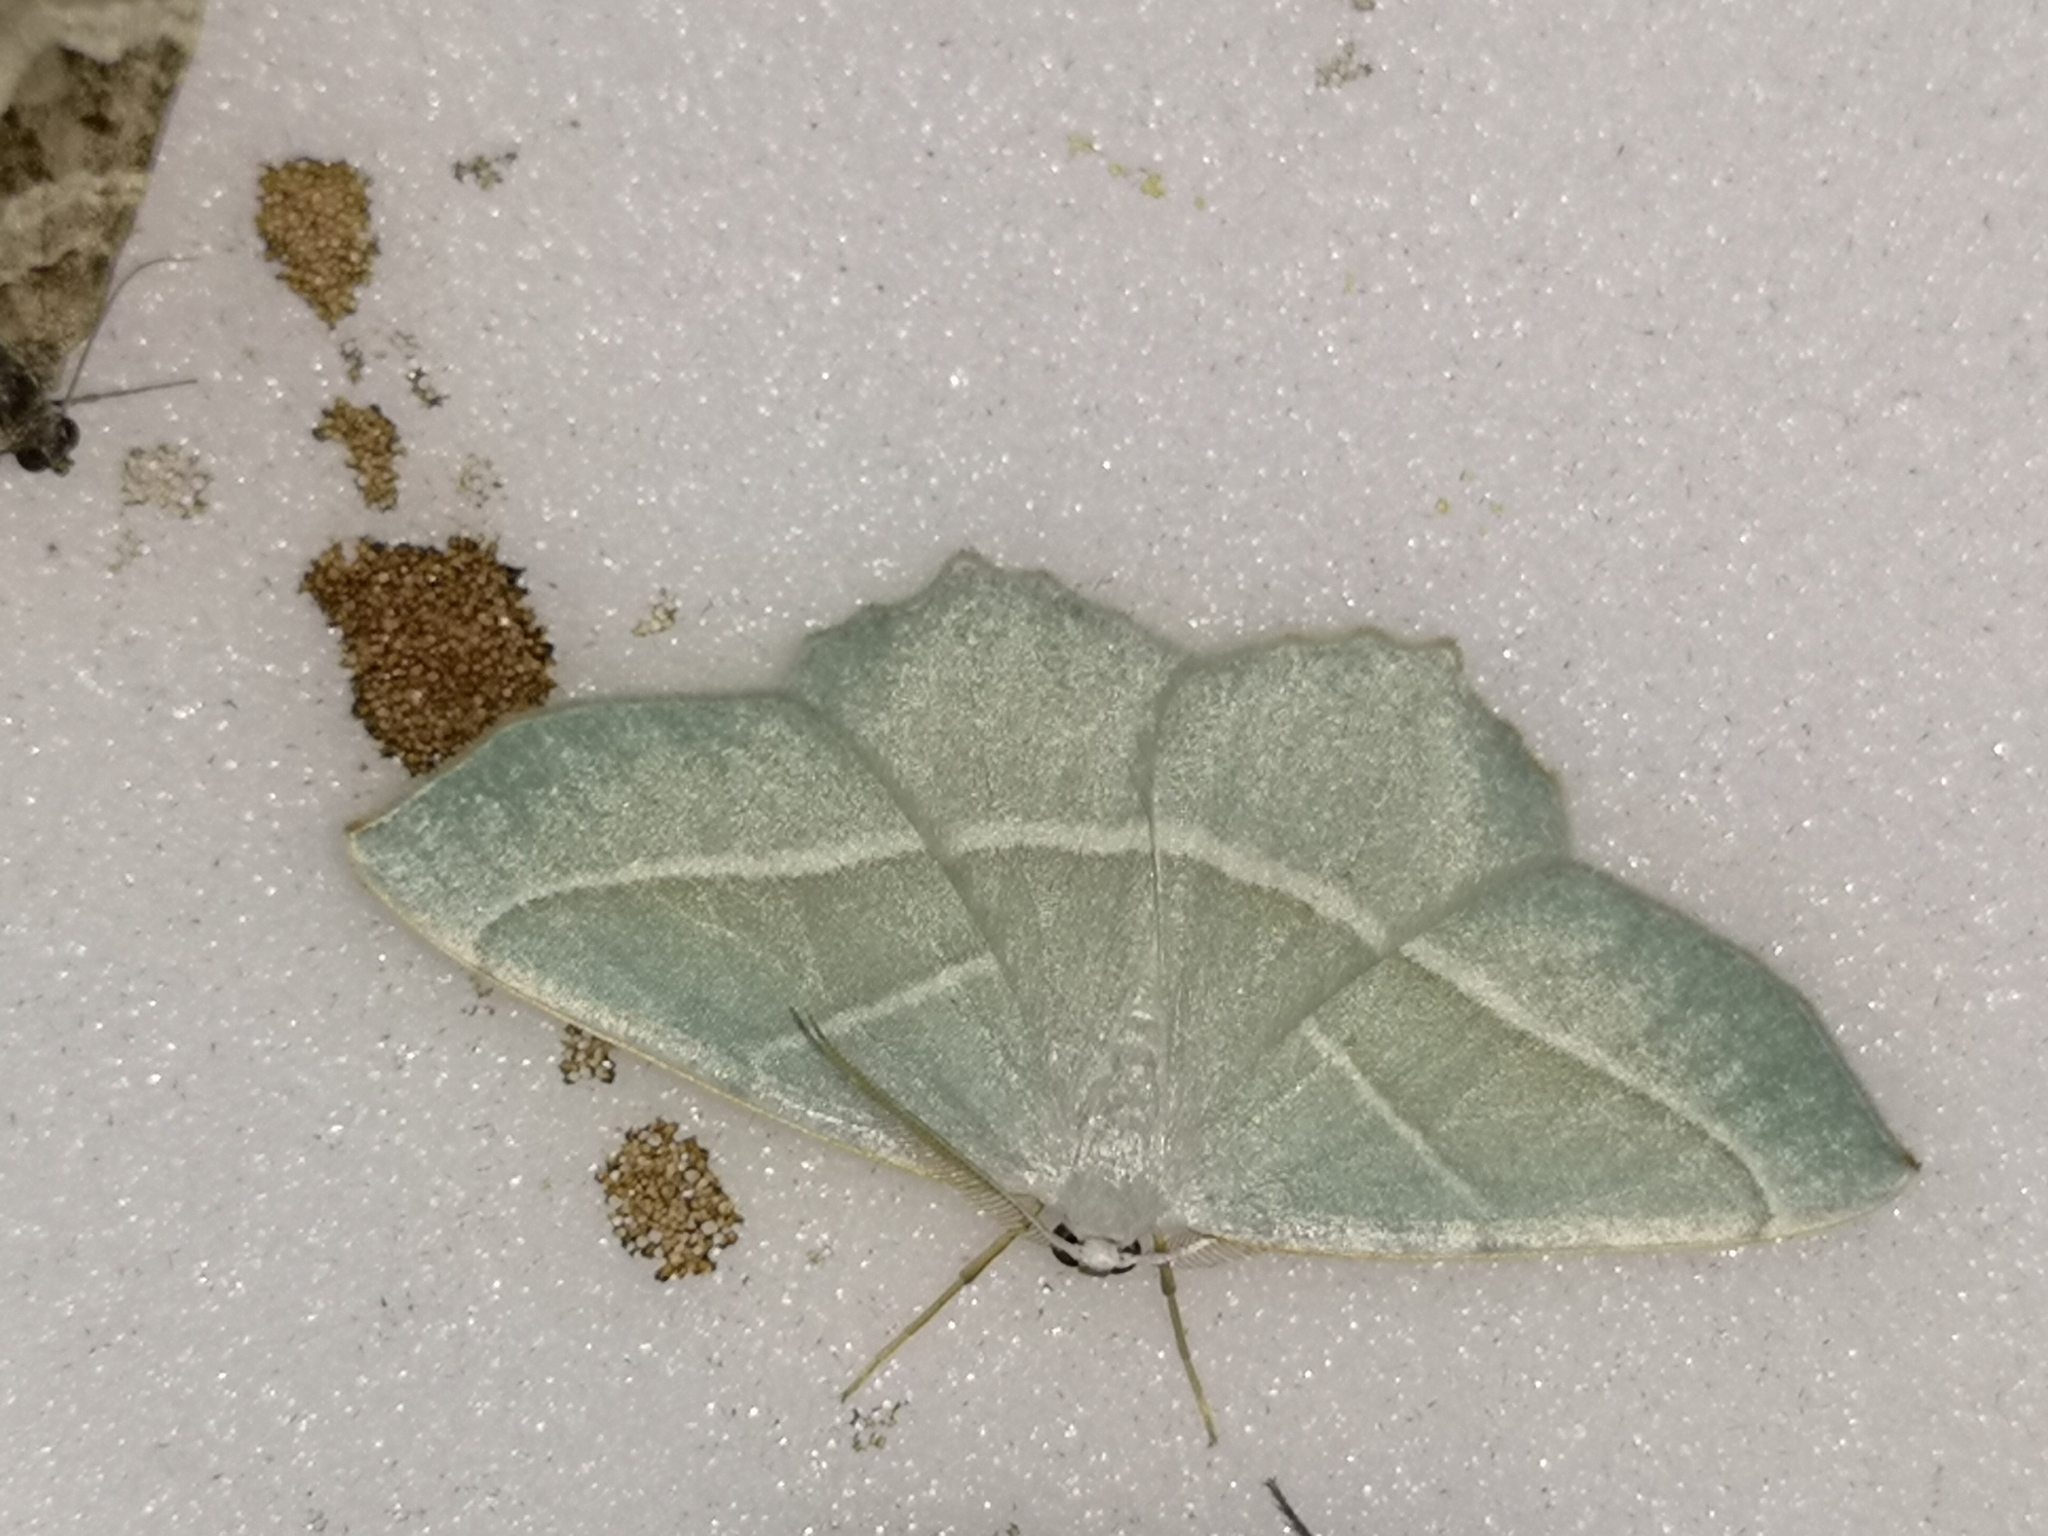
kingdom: Animalia
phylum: Arthropoda
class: Insecta
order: Lepidoptera
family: Geometridae
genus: Campaea
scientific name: Campaea margaritaria
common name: Light emerald
